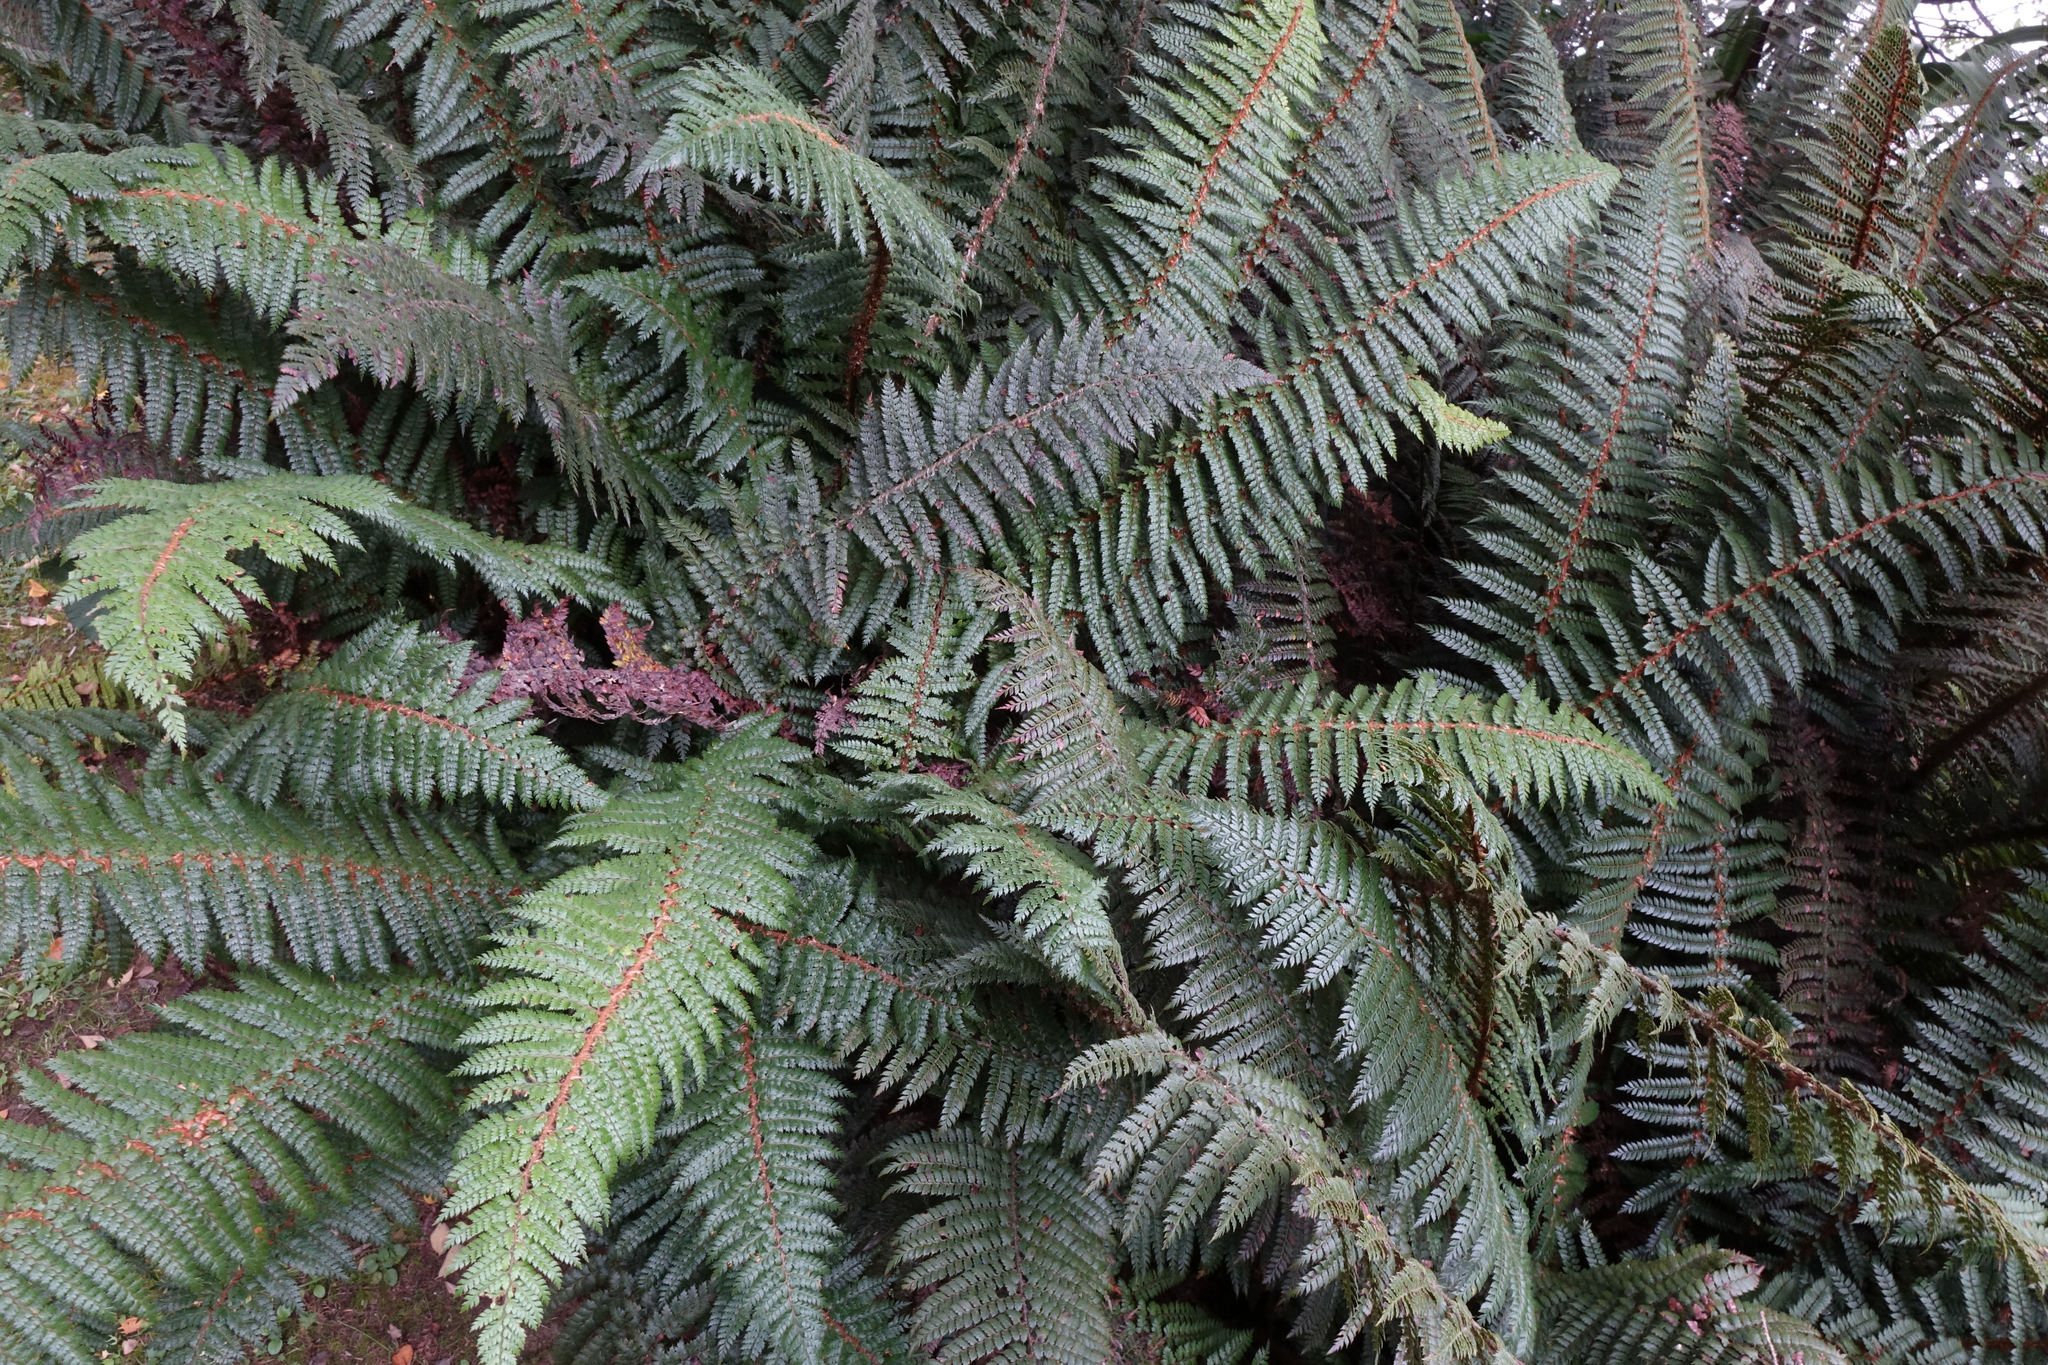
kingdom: Plantae
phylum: Tracheophyta
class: Polypodiopsida
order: Polypodiales
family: Dryopteridaceae
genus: Polystichum
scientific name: Polystichum vestitum
